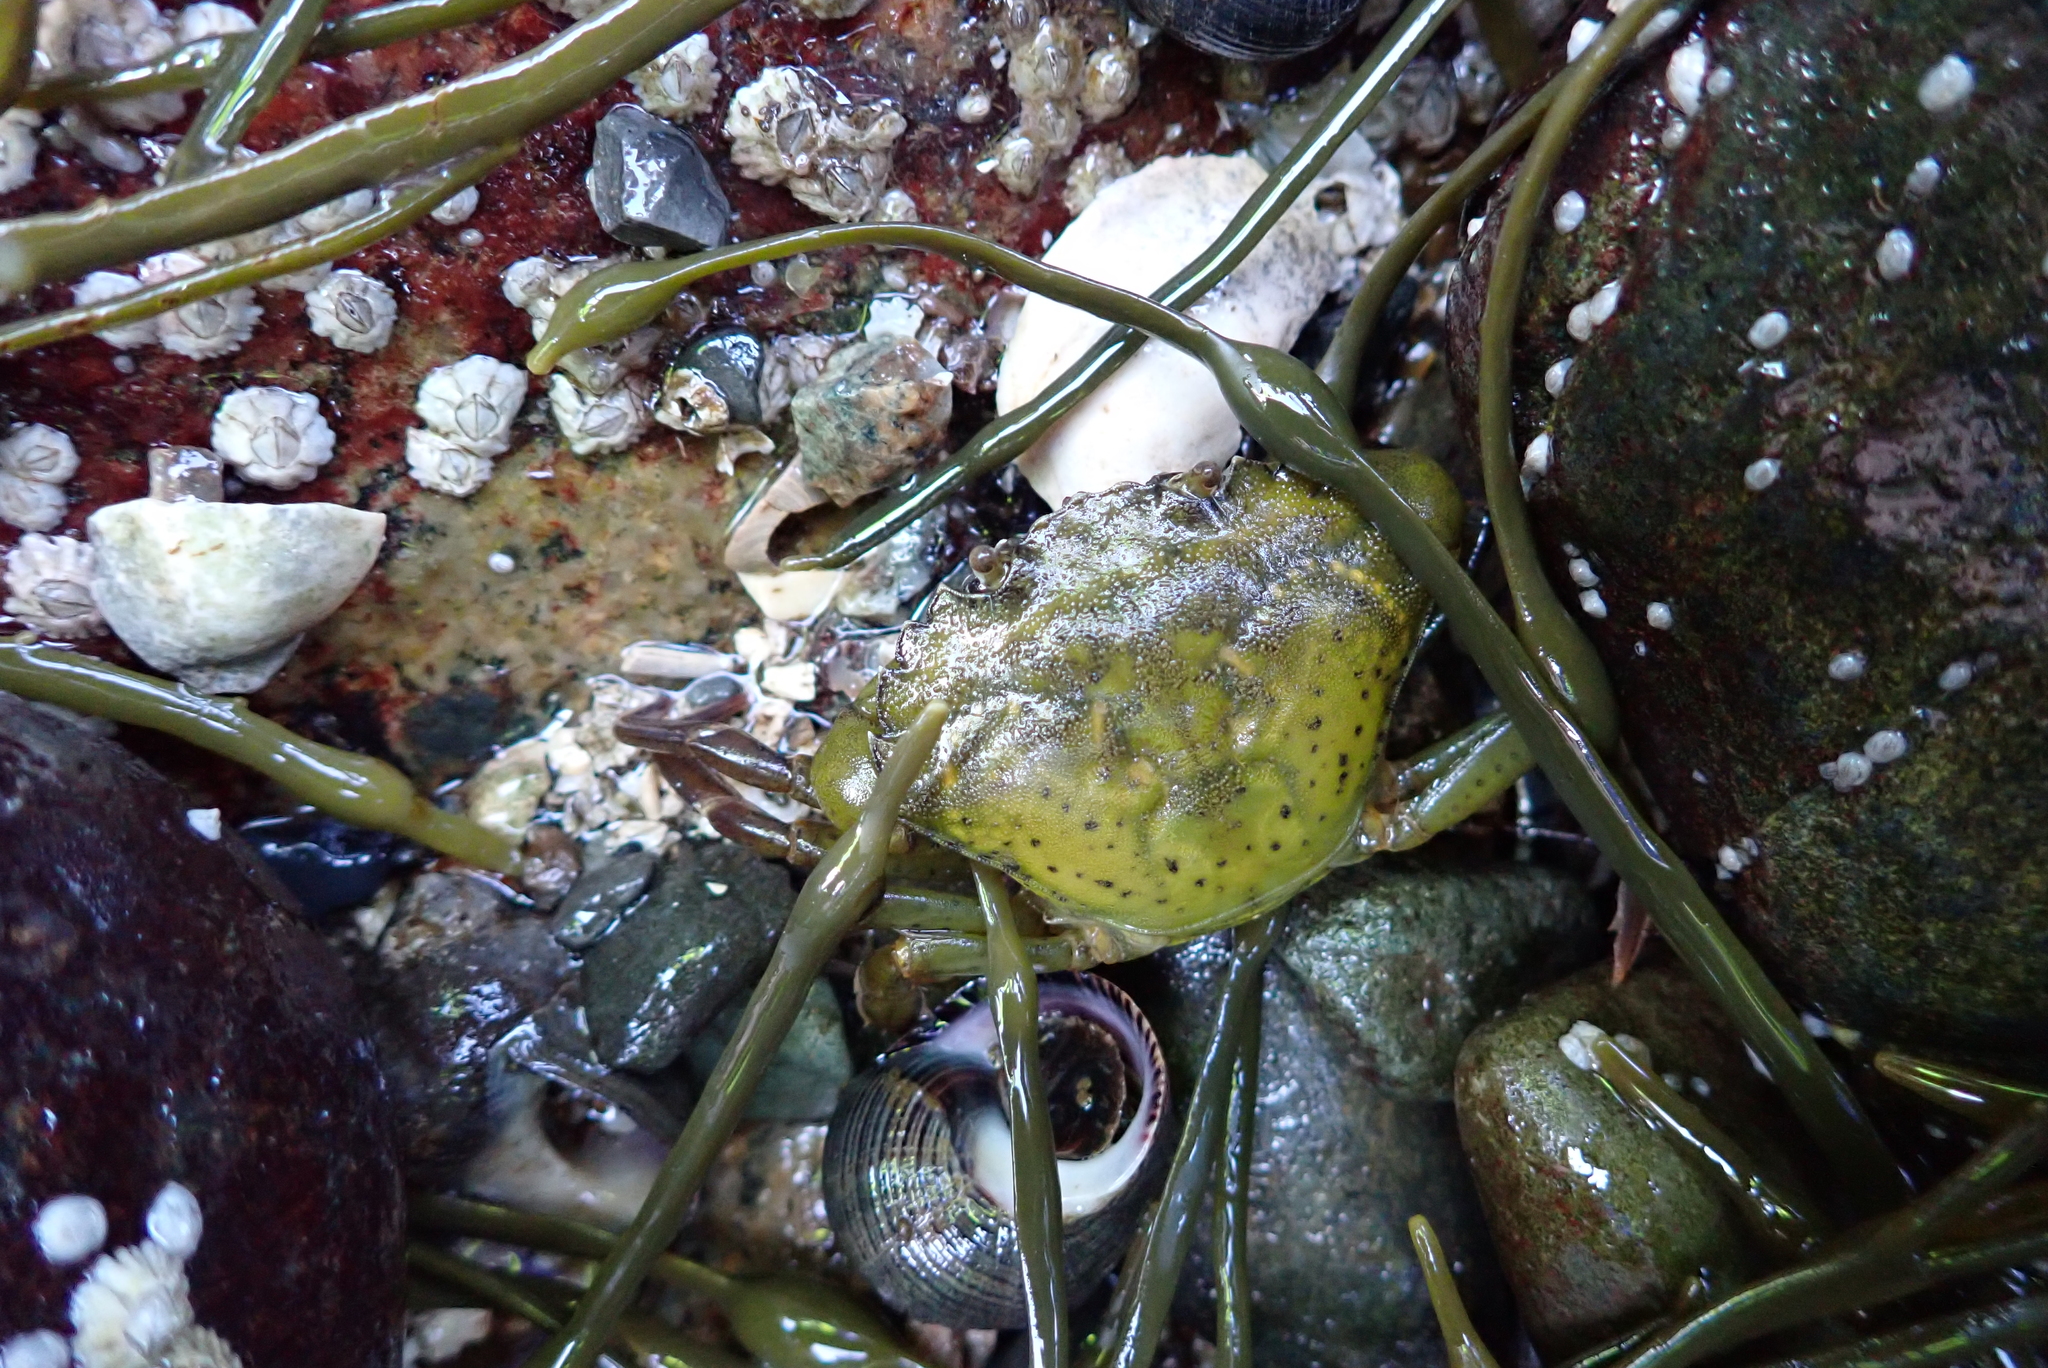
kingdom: Animalia
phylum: Arthropoda
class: Malacostraca
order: Decapoda
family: Carcinidae
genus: Carcinus
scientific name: Carcinus maenas
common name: European green crab
